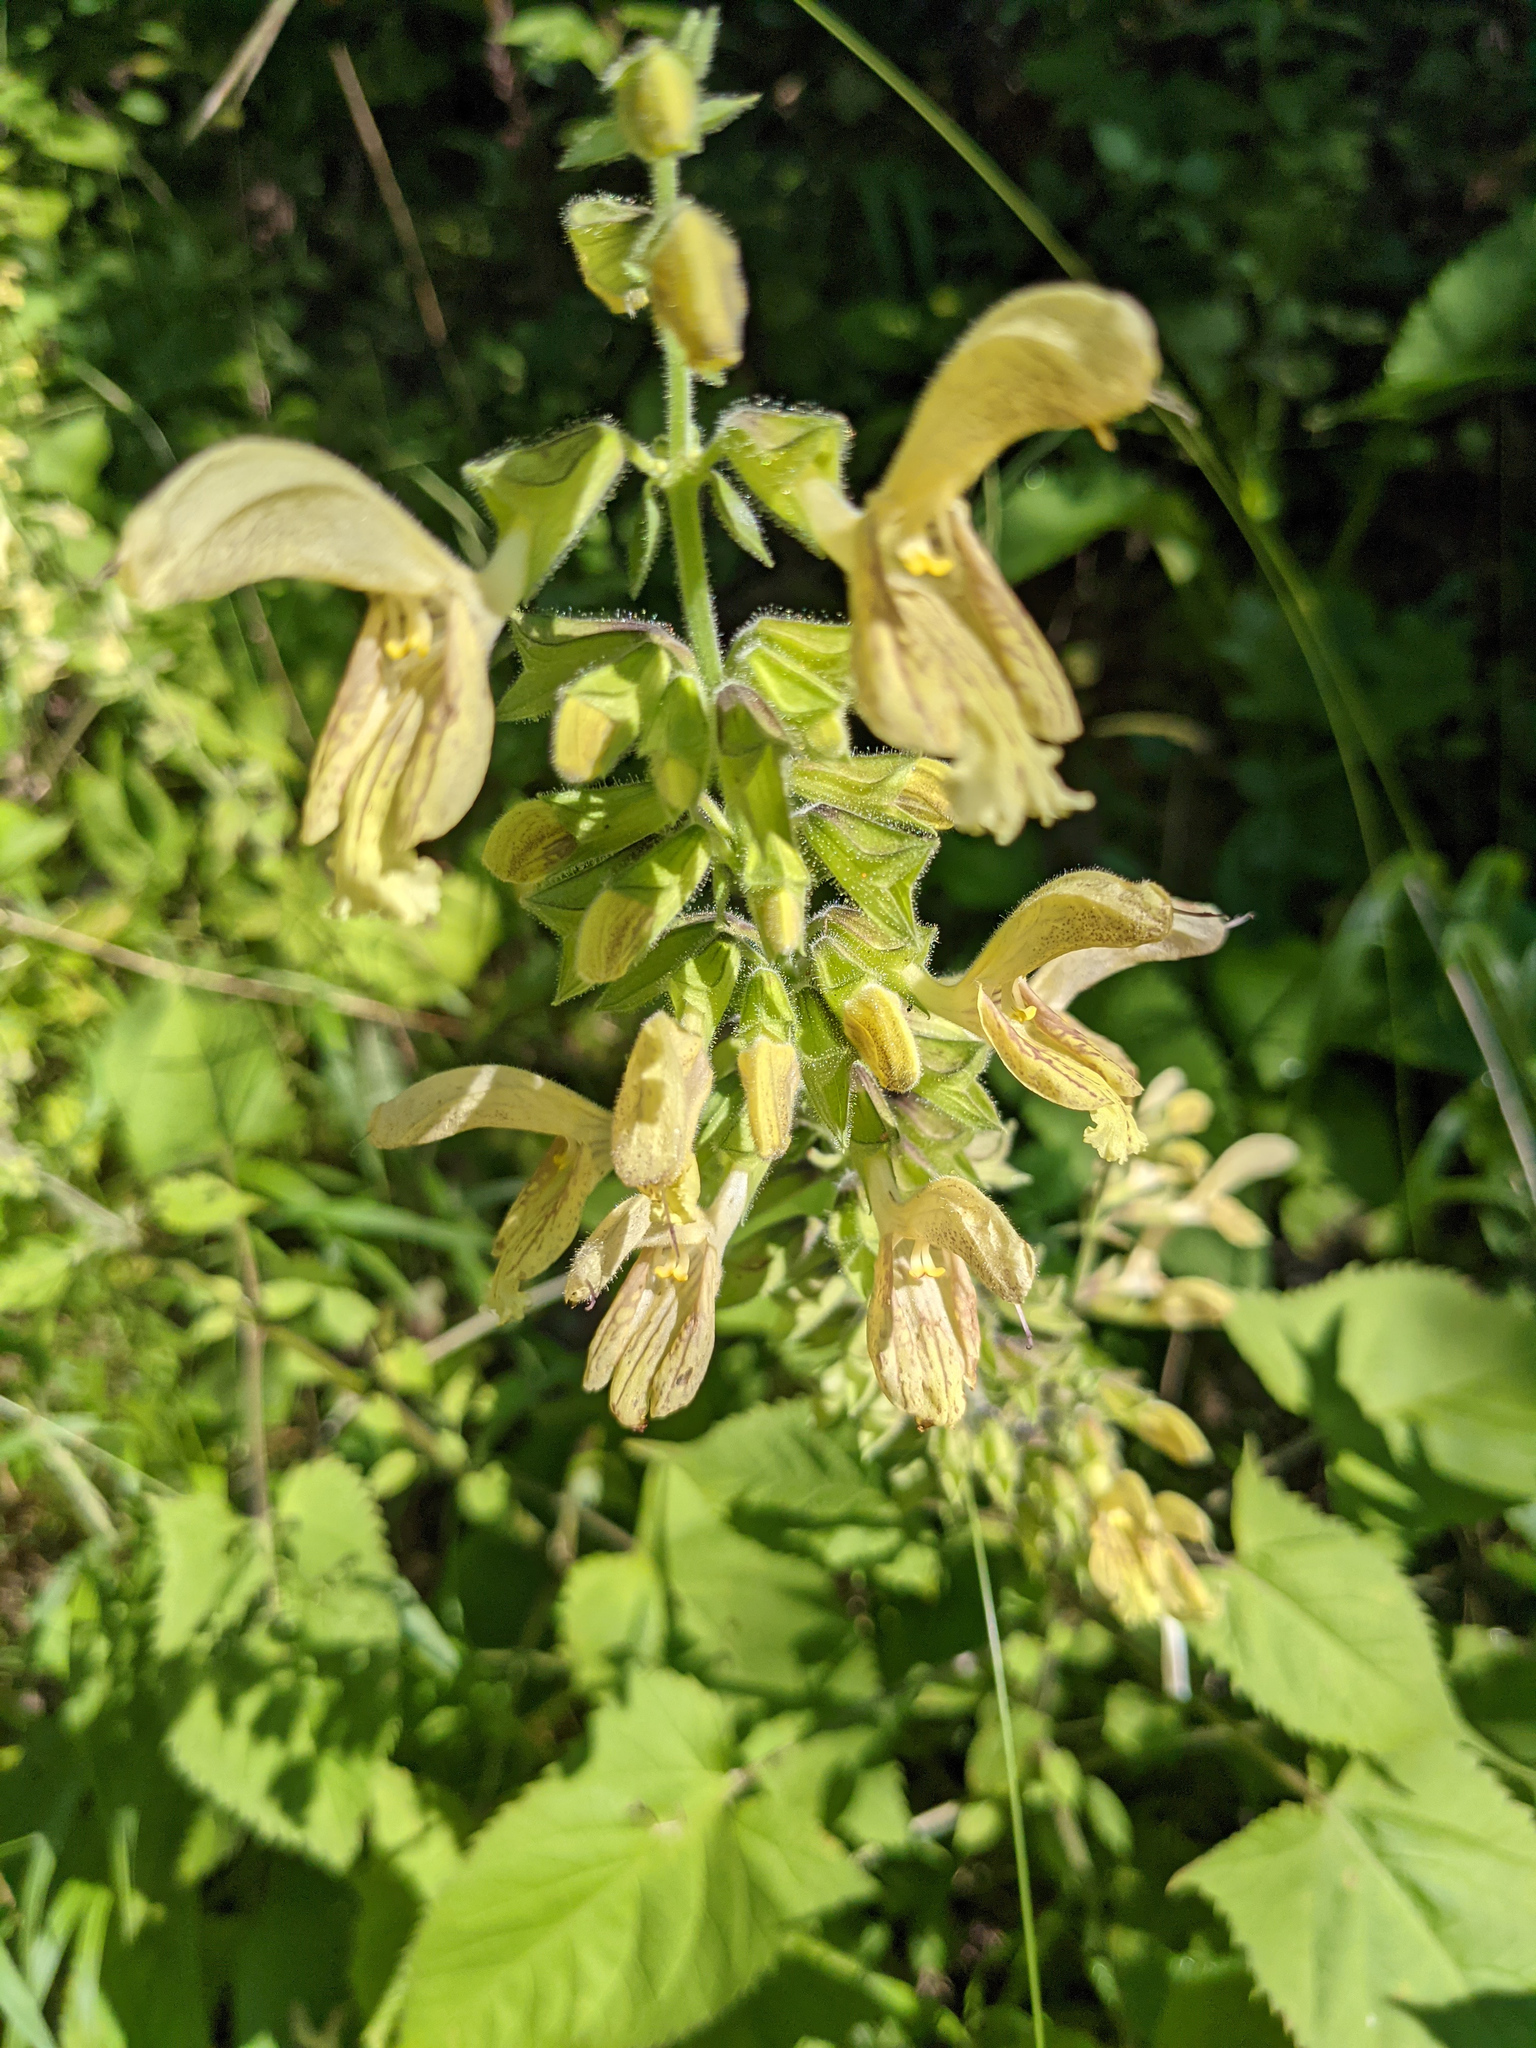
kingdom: Plantae
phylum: Tracheophyta
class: Magnoliopsida
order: Lamiales
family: Lamiaceae
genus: Salvia
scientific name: Salvia glutinosa
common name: Sticky clary
